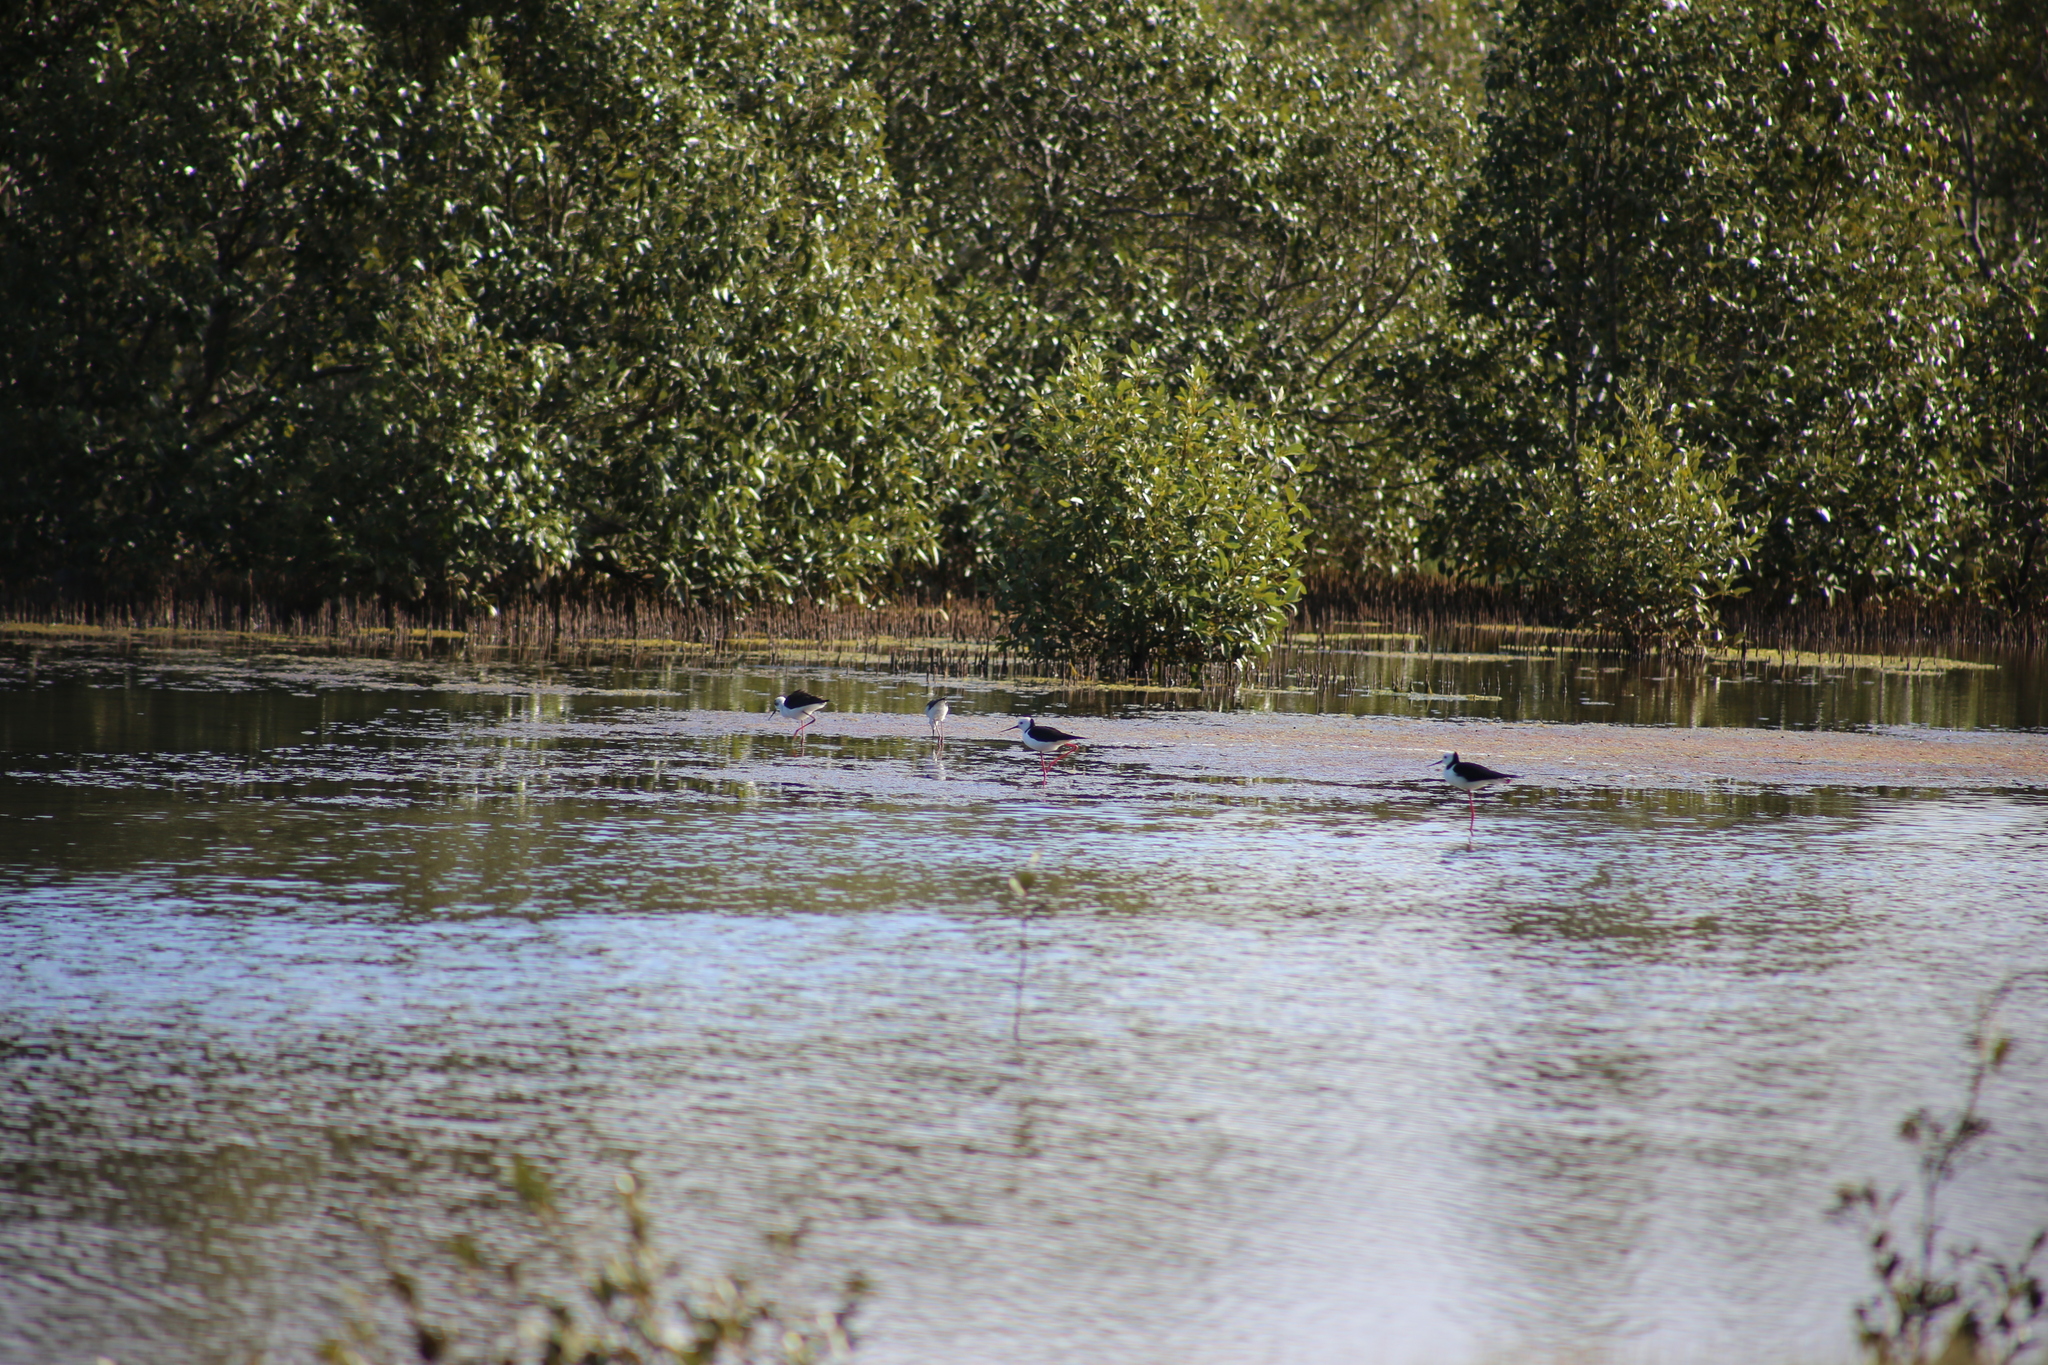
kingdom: Animalia
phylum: Chordata
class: Aves
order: Charadriiformes
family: Recurvirostridae
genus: Himantopus
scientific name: Himantopus leucocephalus
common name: White-headed stilt
